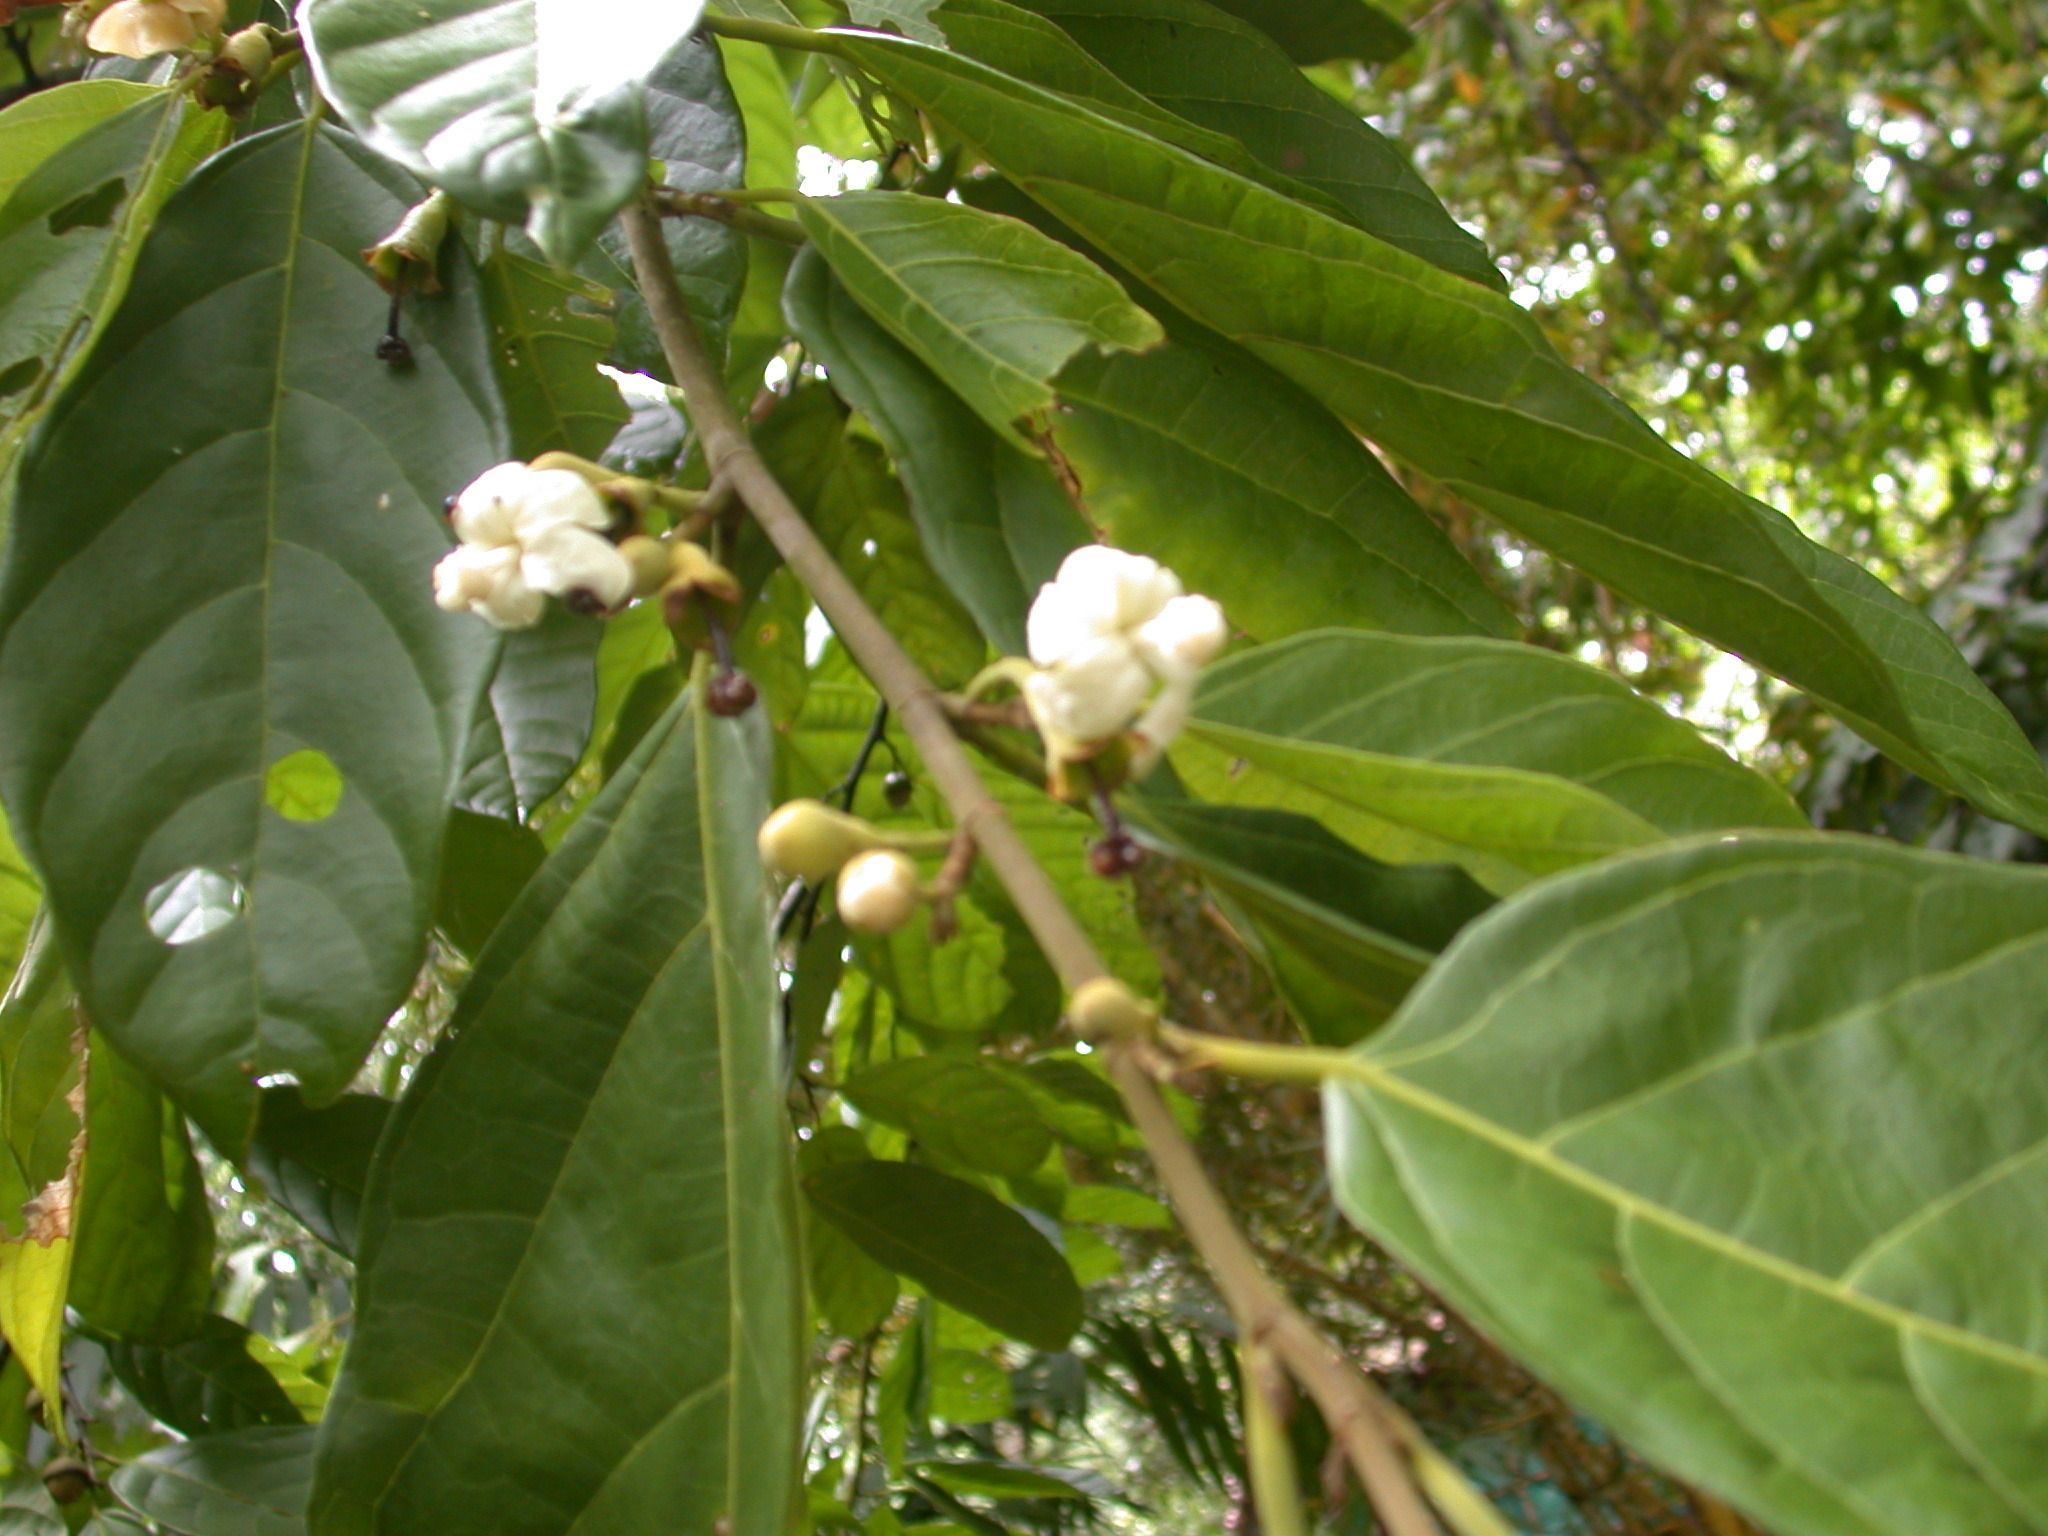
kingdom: Plantae
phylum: Tracheophyta
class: Magnoliopsida
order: Malvales
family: Malvaceae
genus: Quararibea
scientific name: Quararibea asterolepis
